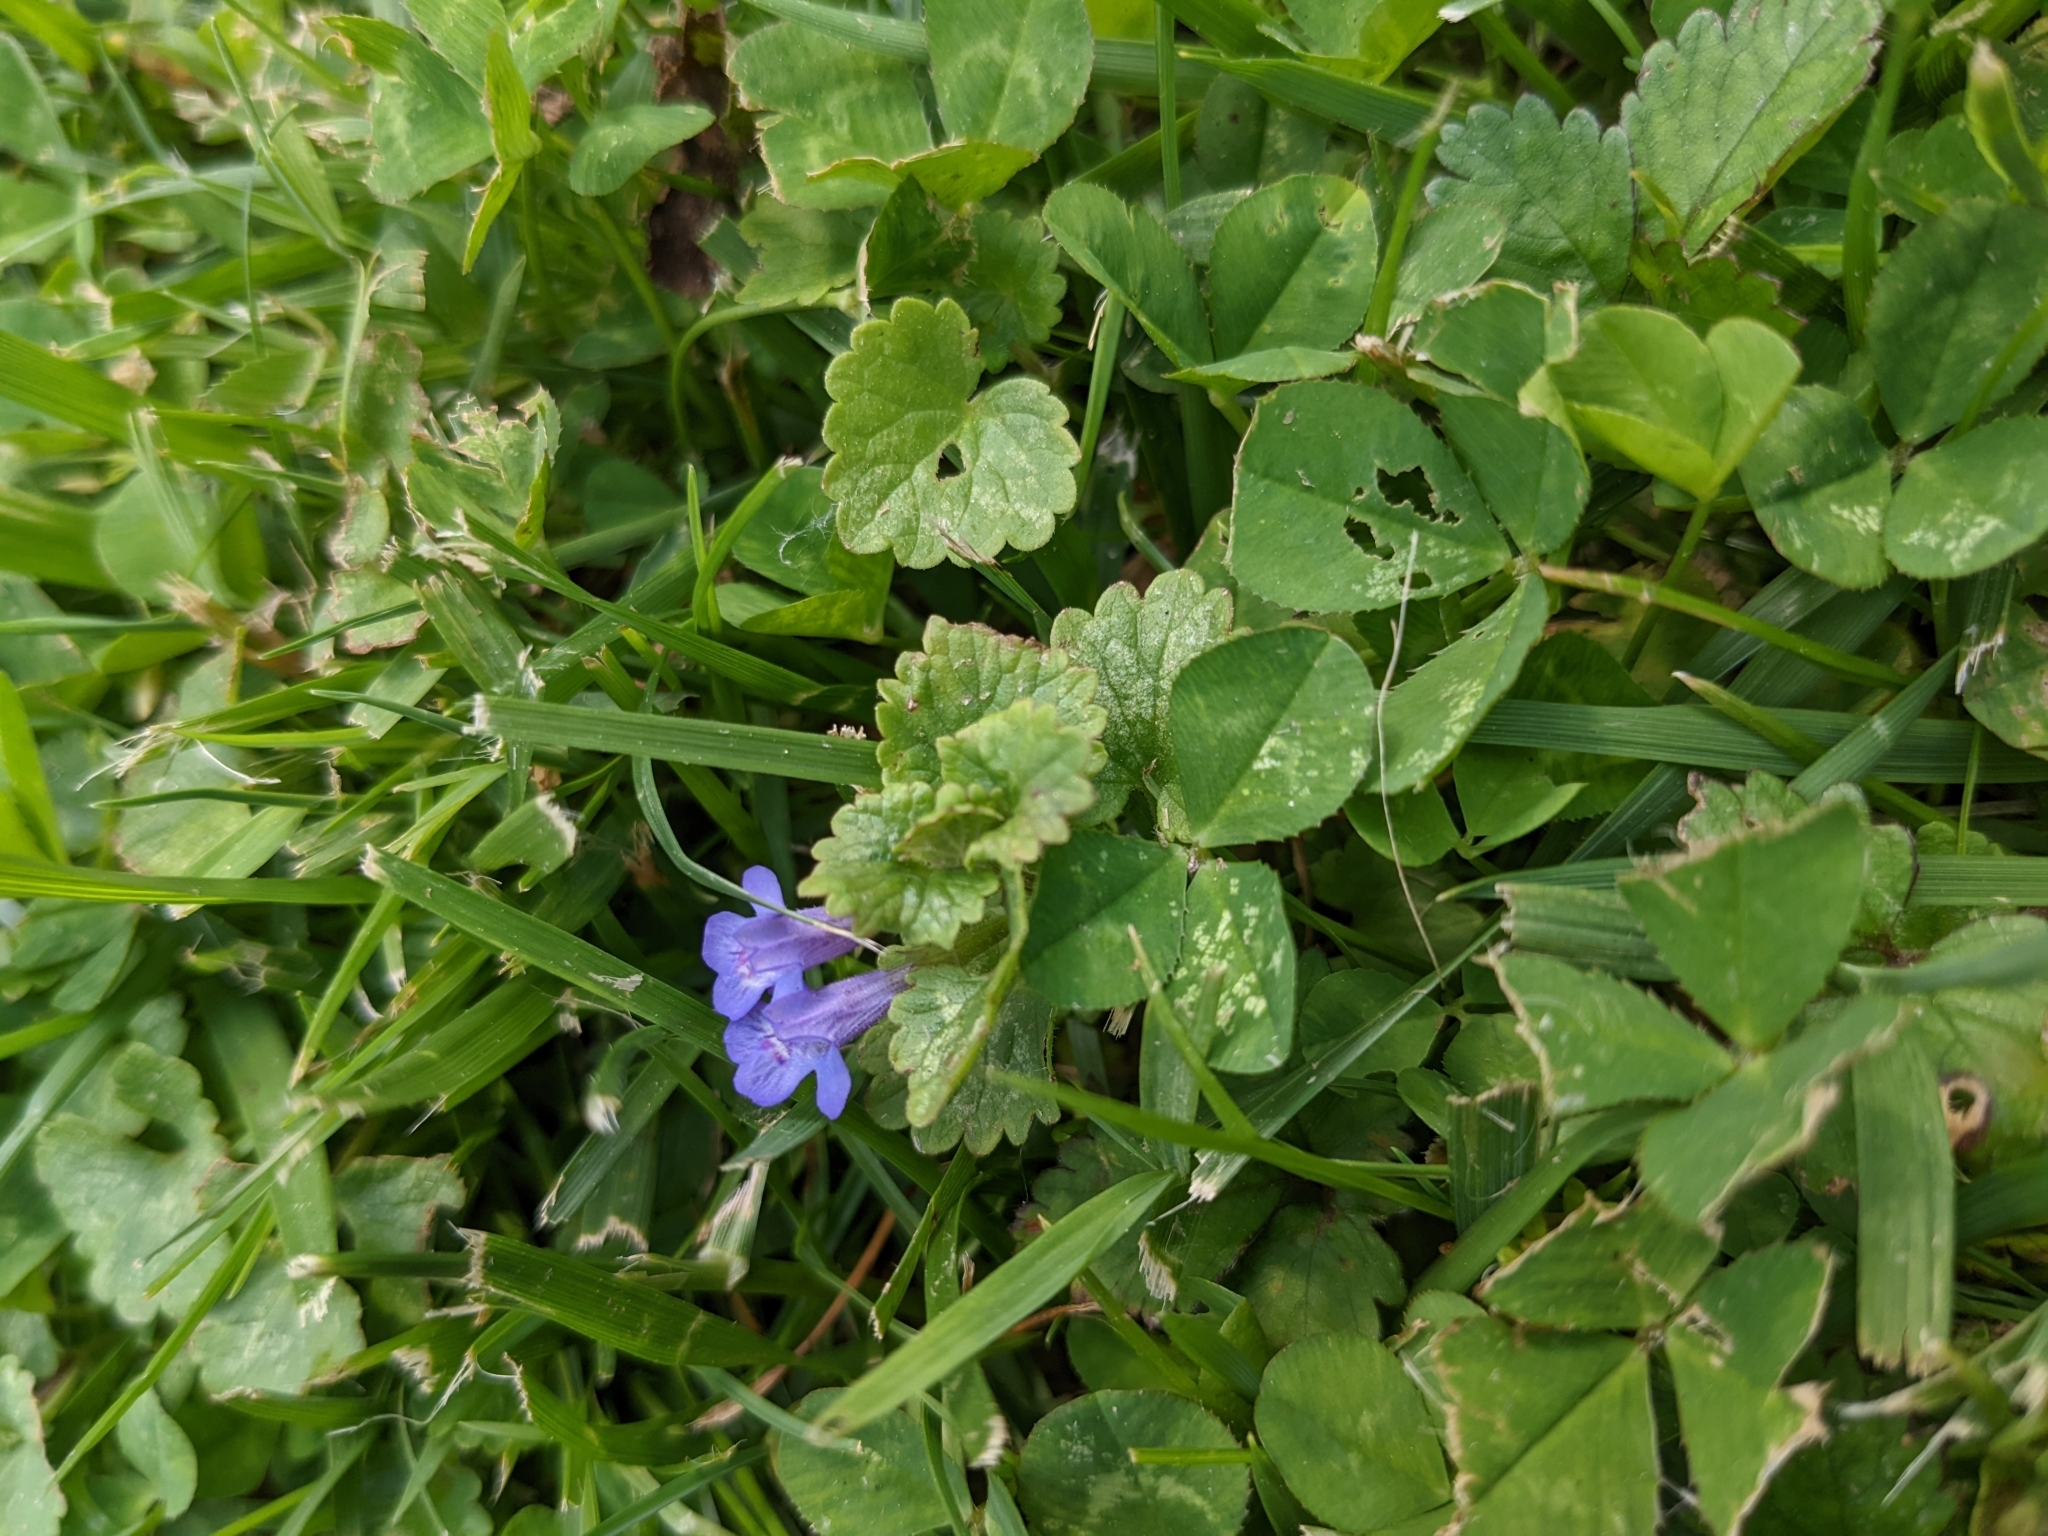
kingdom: Plantae
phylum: Tracheophyta
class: Magnoliopsida
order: Lamiales
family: Lamiaceae
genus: Glechoma
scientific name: Glechoma hederacea
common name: Ground ivy
